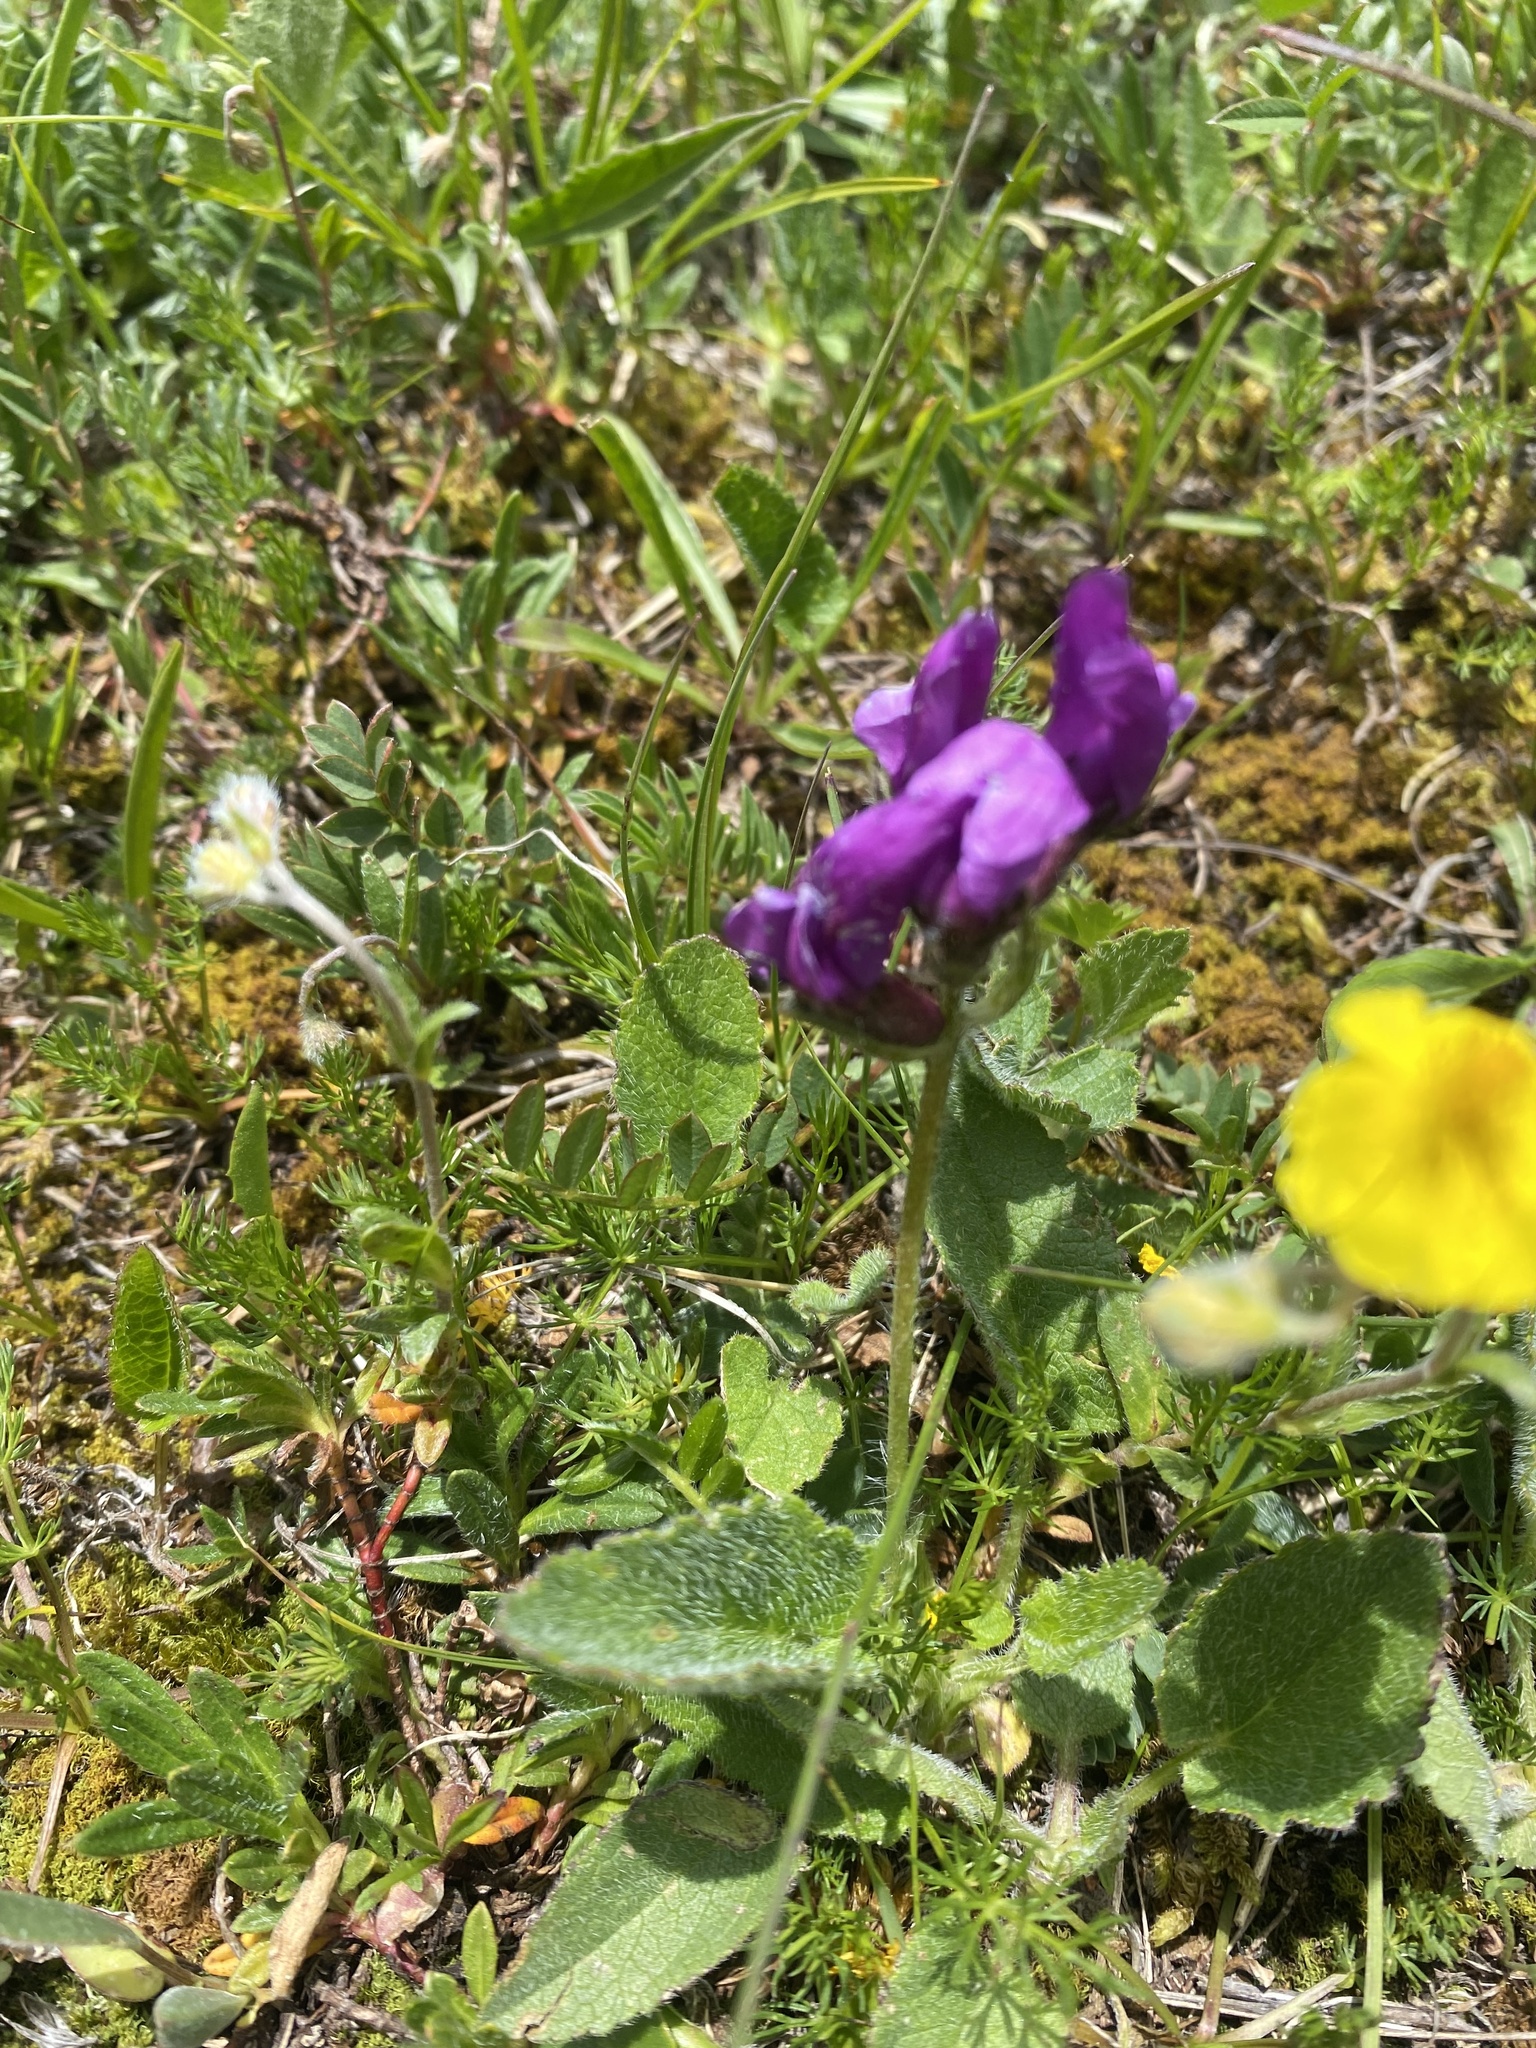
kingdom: Plantae
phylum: Tracheophyta
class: Magnoliopsida
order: Fabales
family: Fabaceae
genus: Oxytropis
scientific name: Oxytropis lazica
